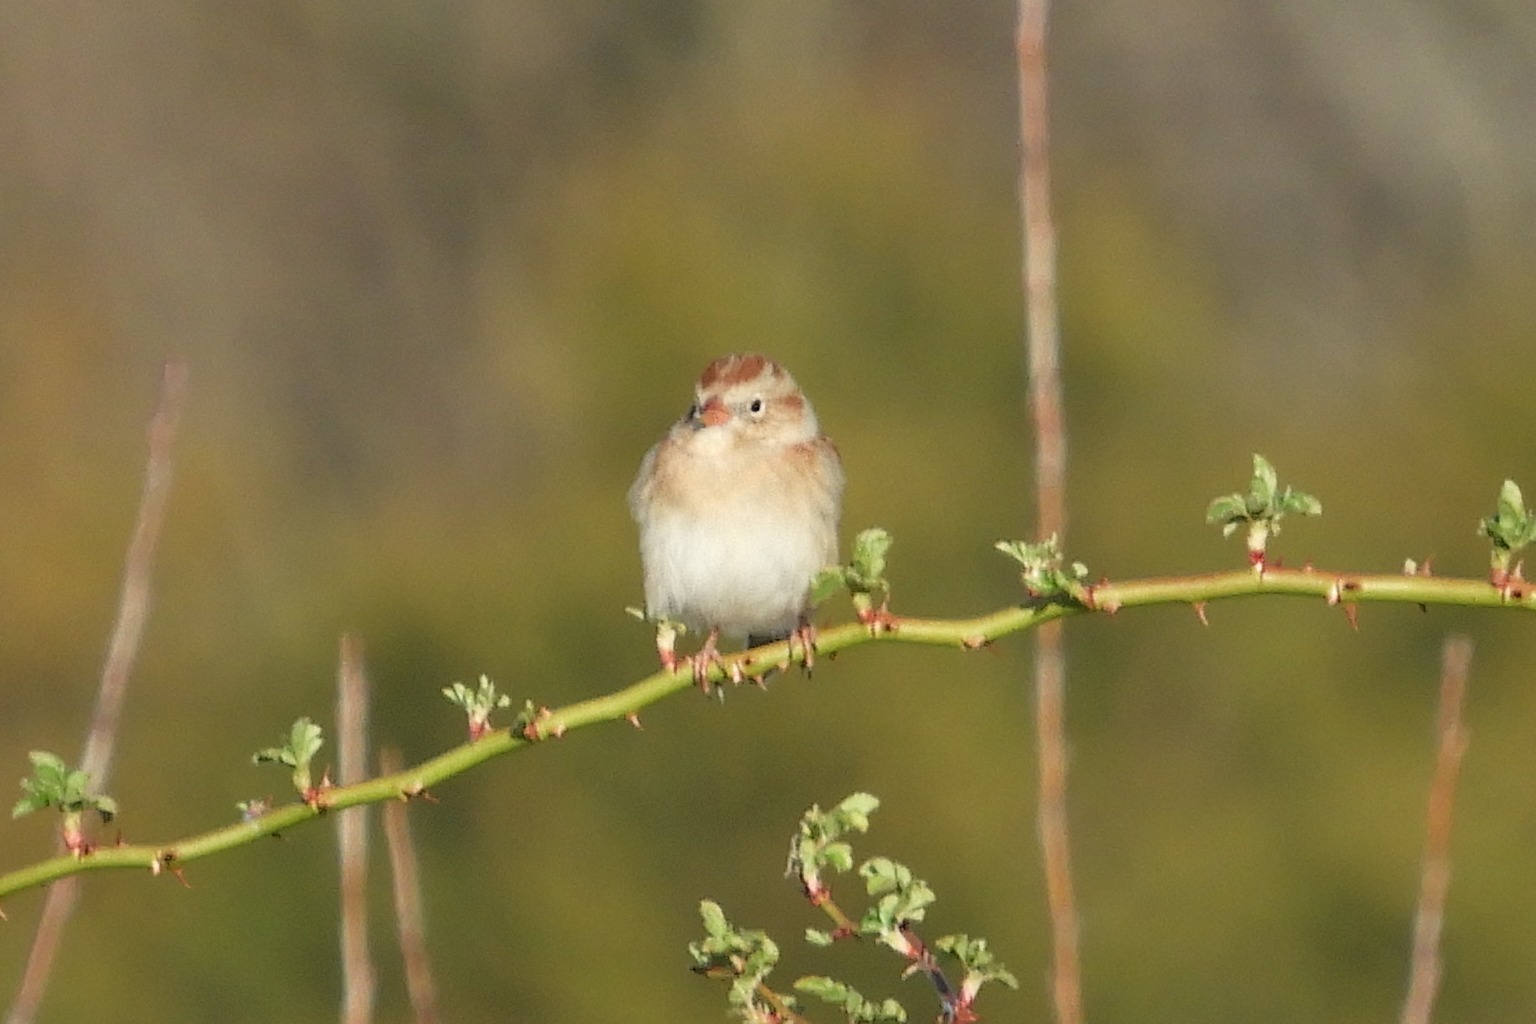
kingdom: Animalia
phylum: Chordata
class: Aves
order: Passeriformes
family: Passerellidae
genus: Spizella
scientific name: Spizella pusilla
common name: Field sparrow
